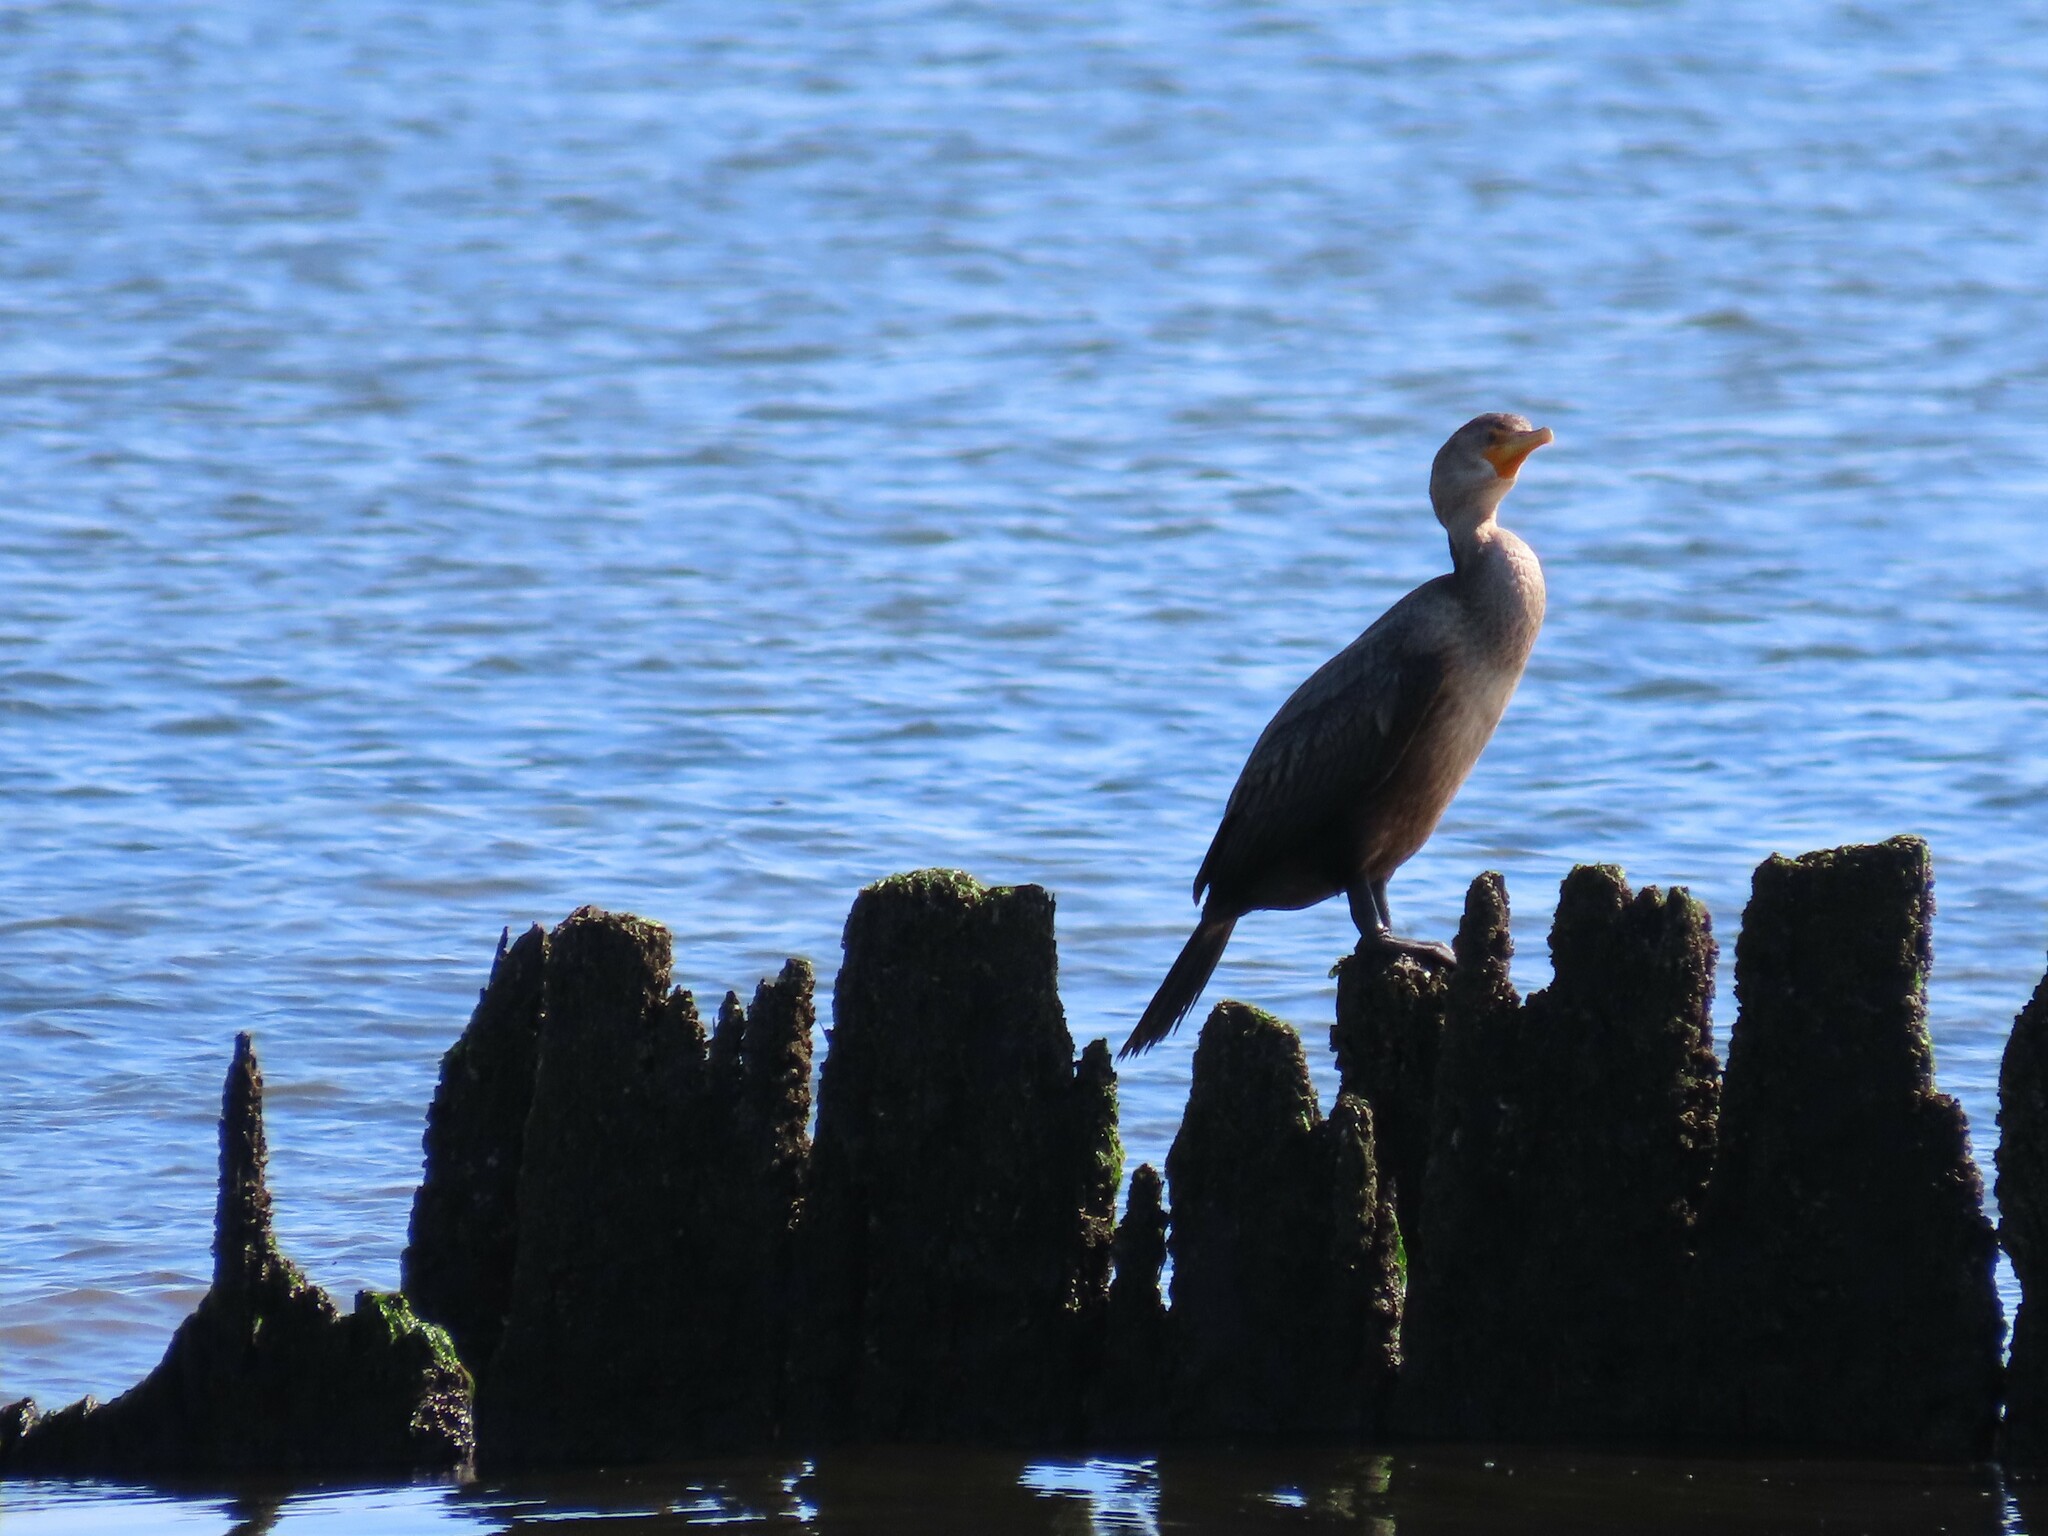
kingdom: Animalia
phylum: Chordata
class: Aves
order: Suliformes
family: Phalacrocoracidae
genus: Phalacrocorax
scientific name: Phalacrocorax auritus
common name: Double-crested cormorant
